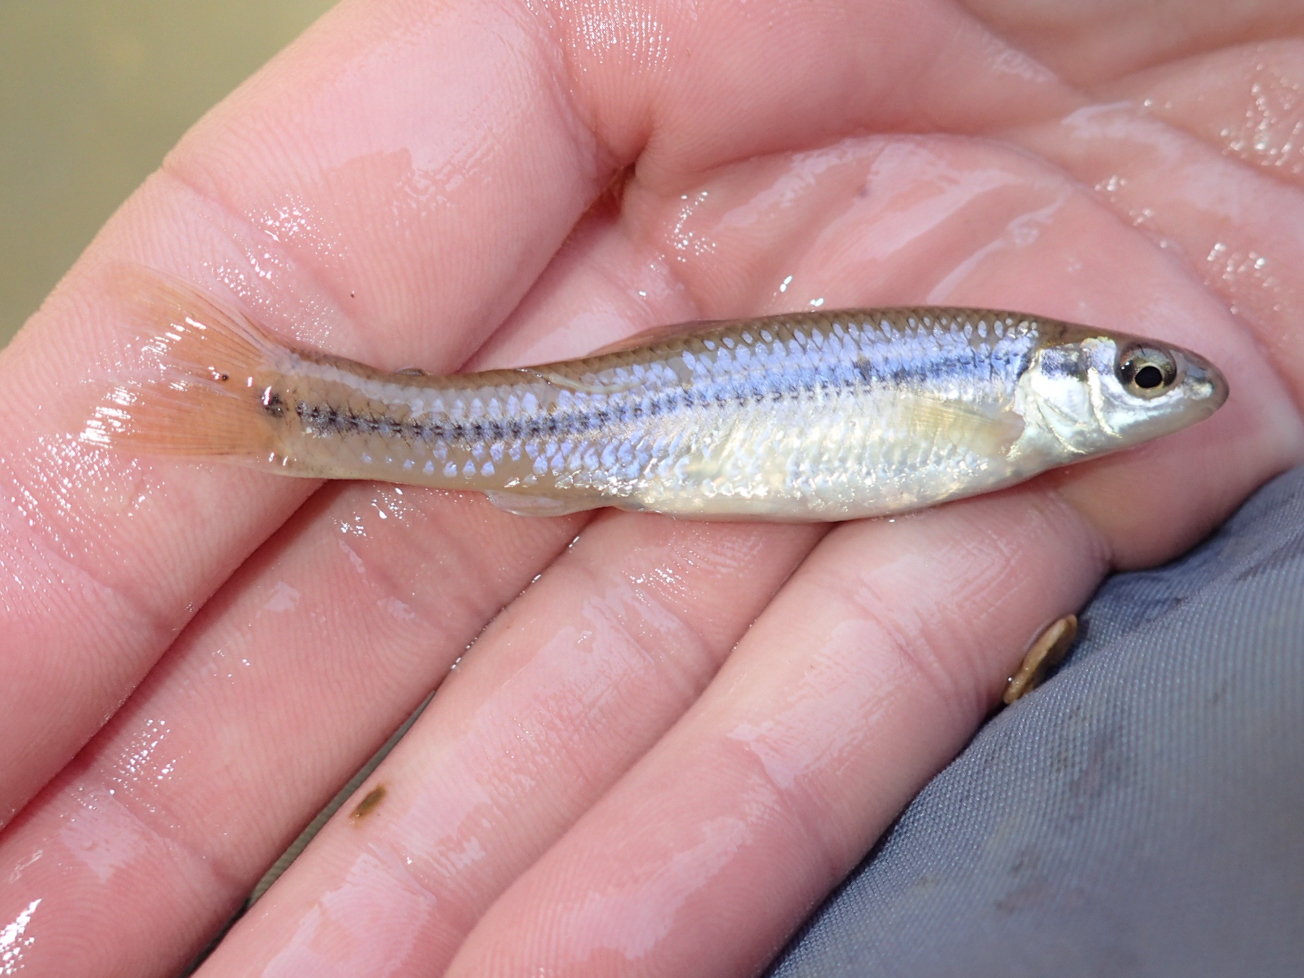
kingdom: Animalia
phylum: Chordata
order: Cypriniformes
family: Cyprinidae
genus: Pimephales
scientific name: Pimephales notatus
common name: Bluntnose minnow
